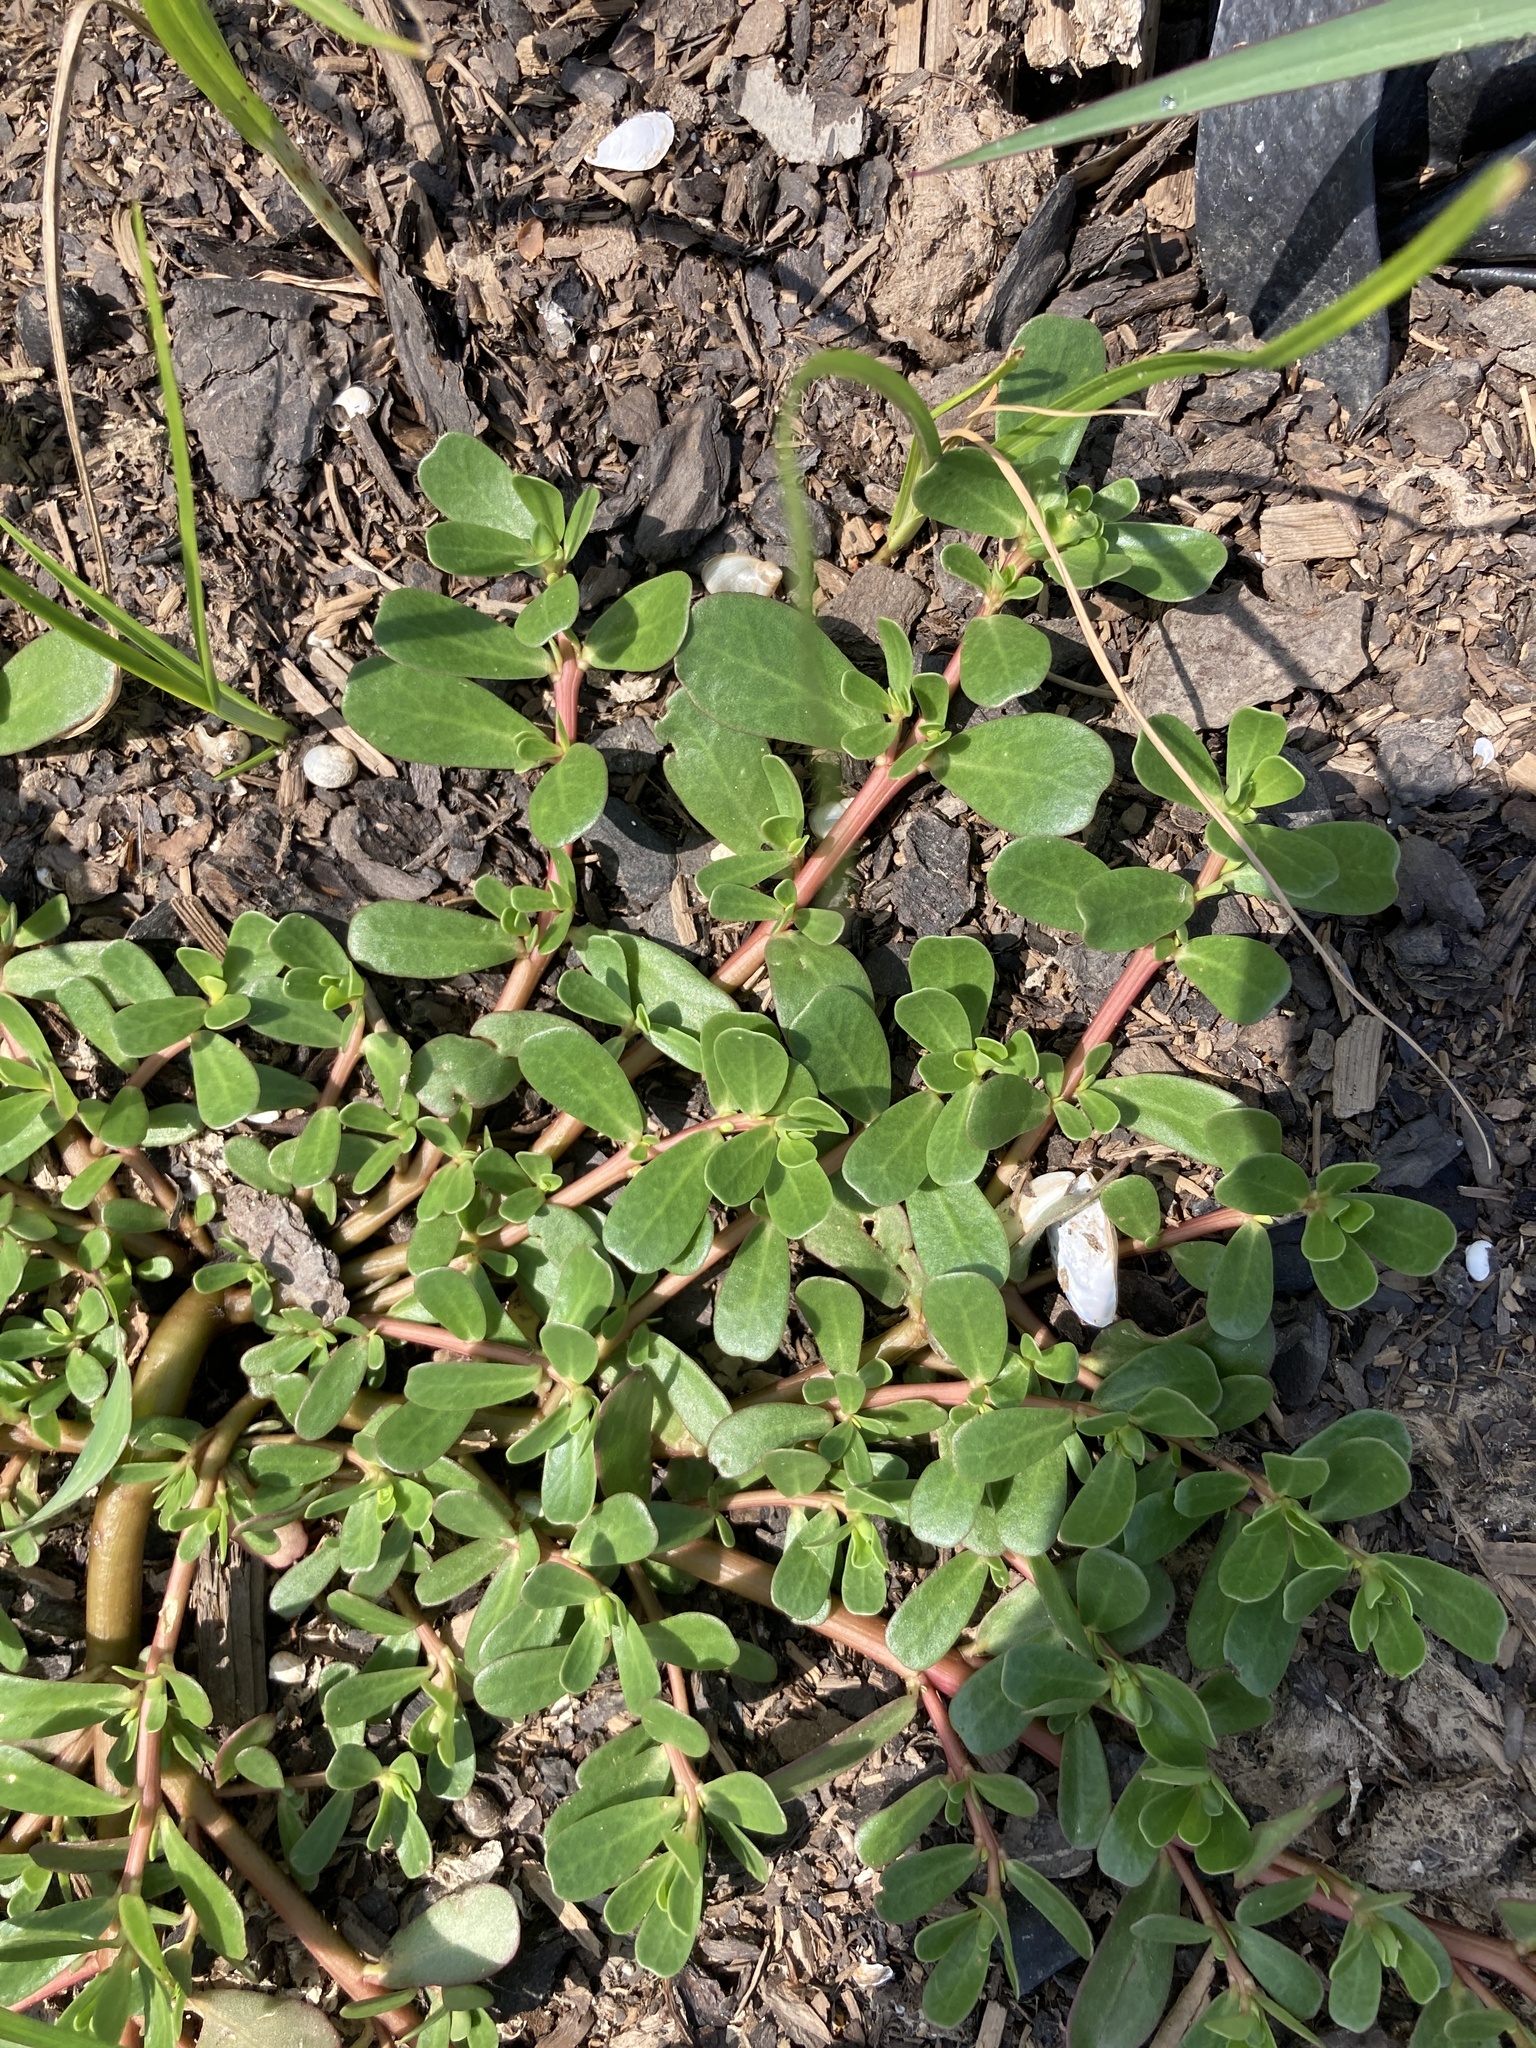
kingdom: Plantae
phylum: Tracheophyta
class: Magnoliopsida
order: Caryophyllales
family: Portulacaceae
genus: Portulaca
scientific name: Portulaca oleracea
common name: Common purslane
